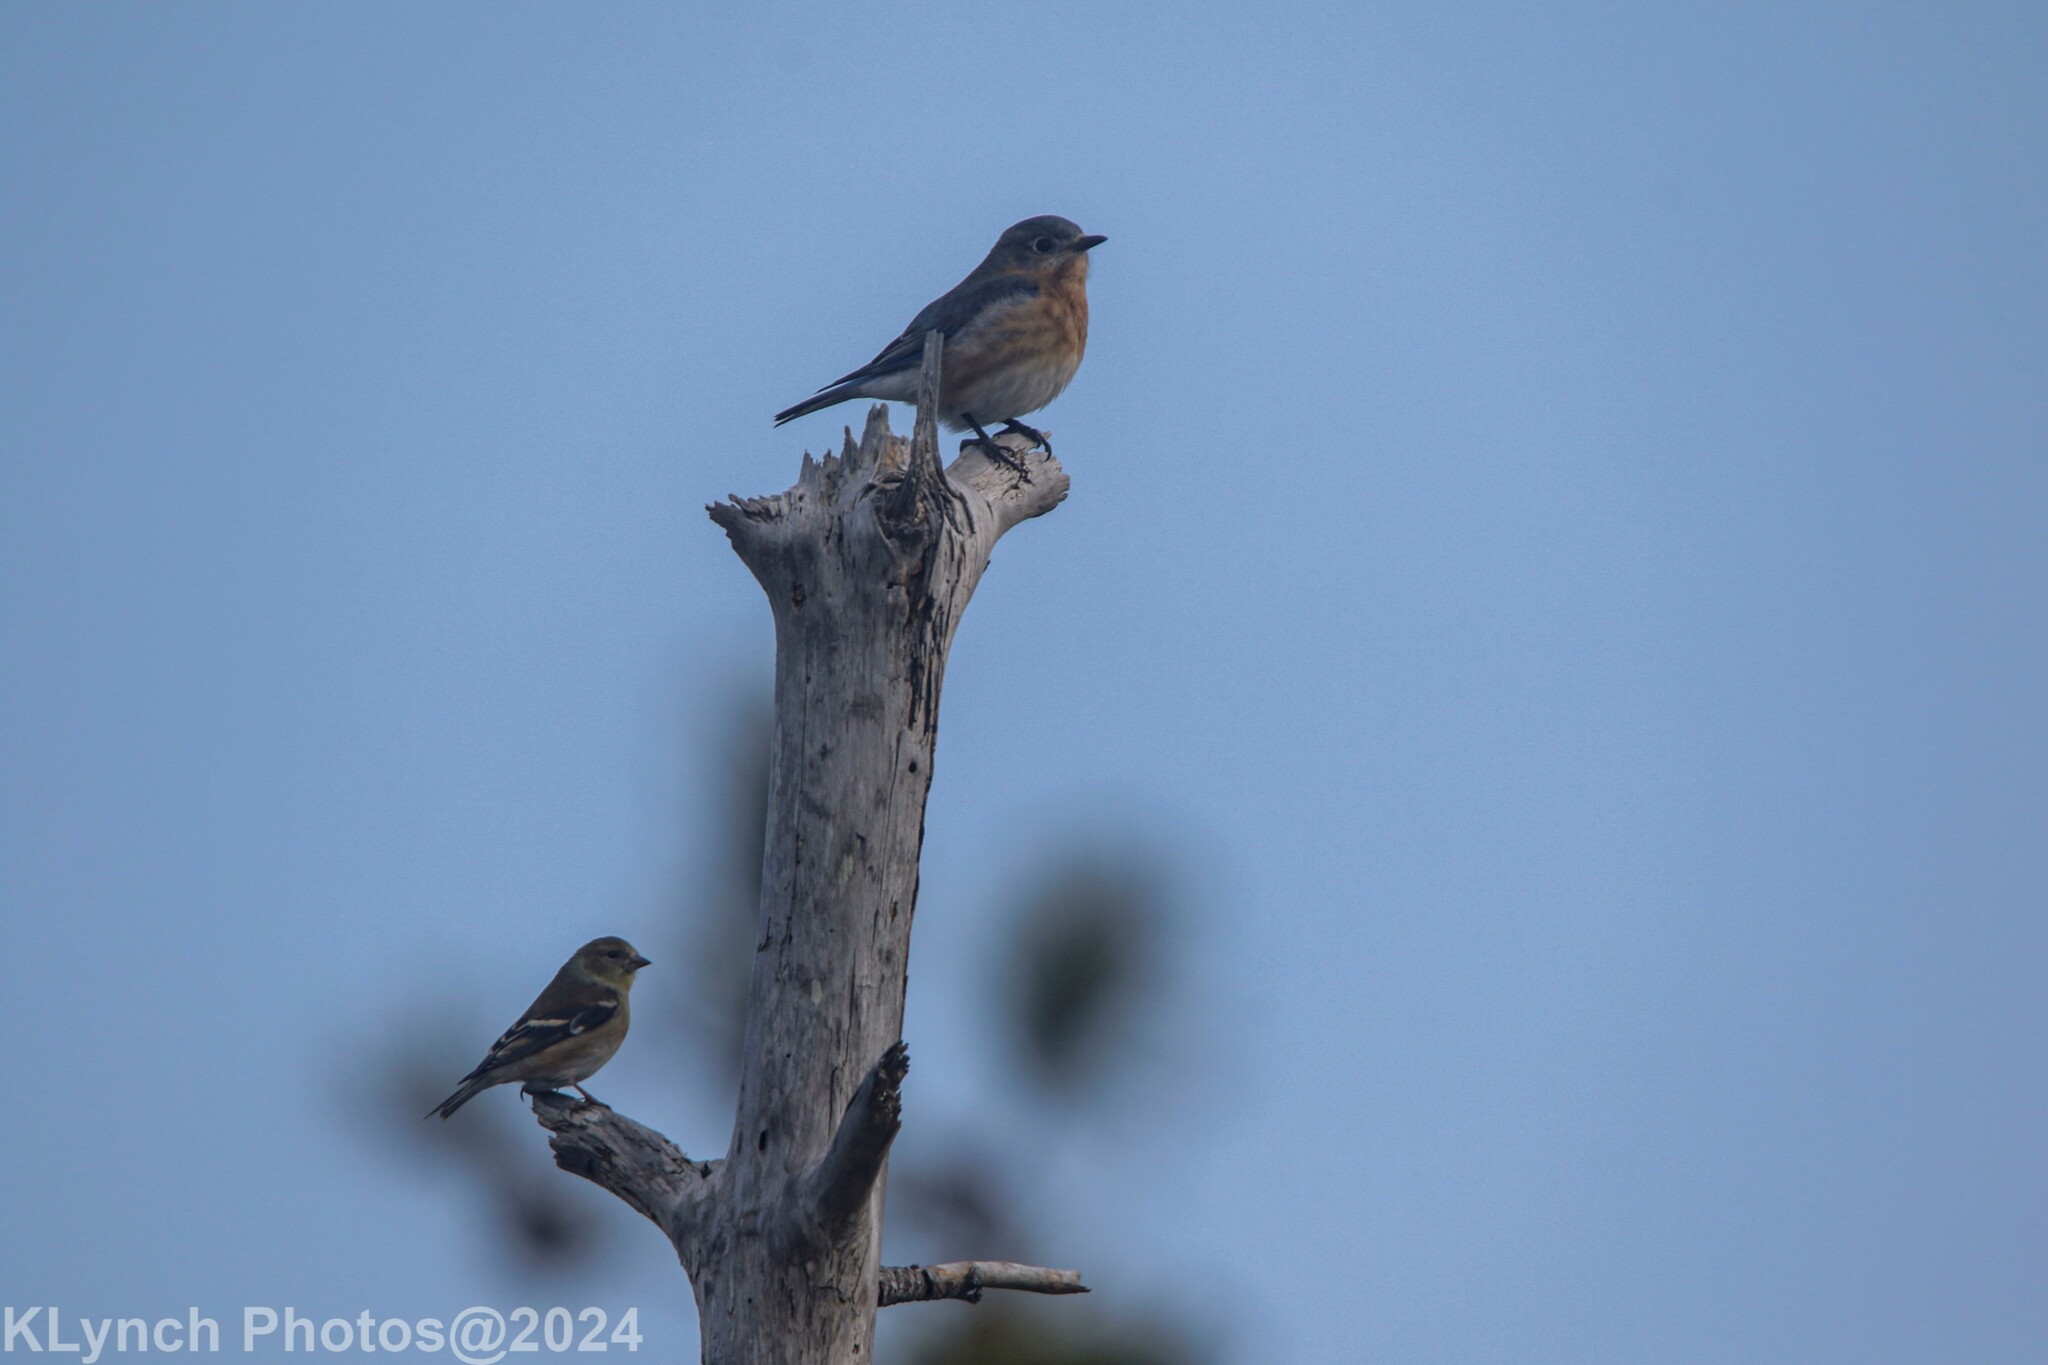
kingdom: Animalia
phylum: Chordata
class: Aves
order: Passeriformes
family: Turdidae
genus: Sialia
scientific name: Sialia sialis
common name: Eastern bluebird
